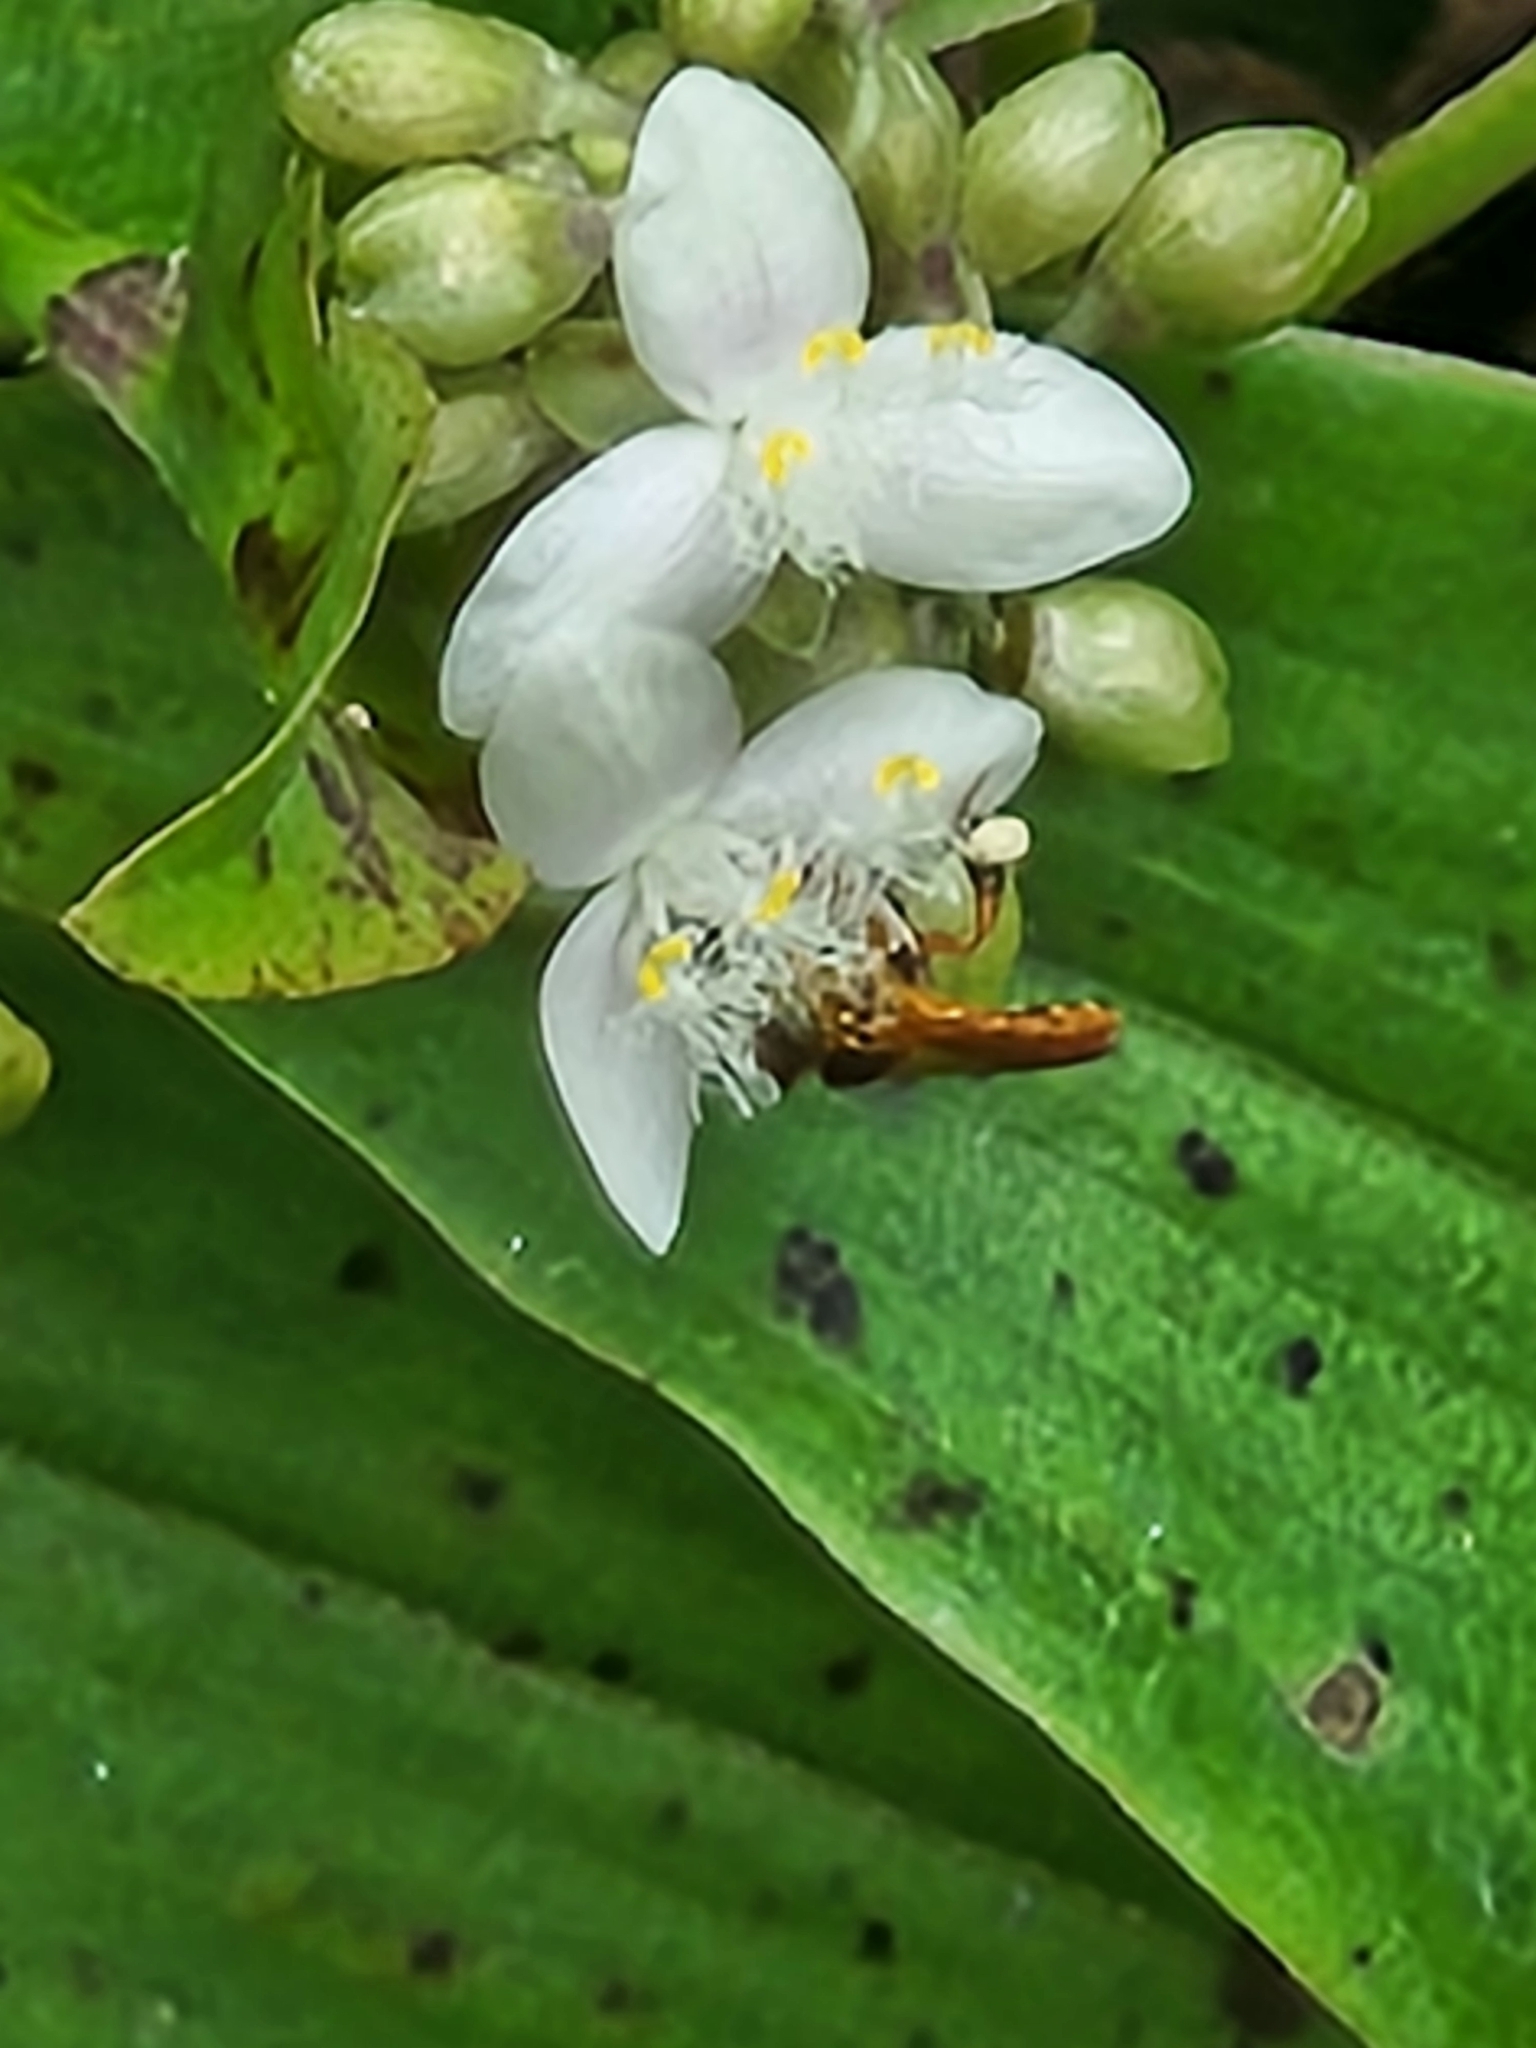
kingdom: Animalia
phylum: Arthropoda
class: Insecta
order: Hymenoptera
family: Apidae
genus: Tetragonisca
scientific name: Tetragonisca angustula
